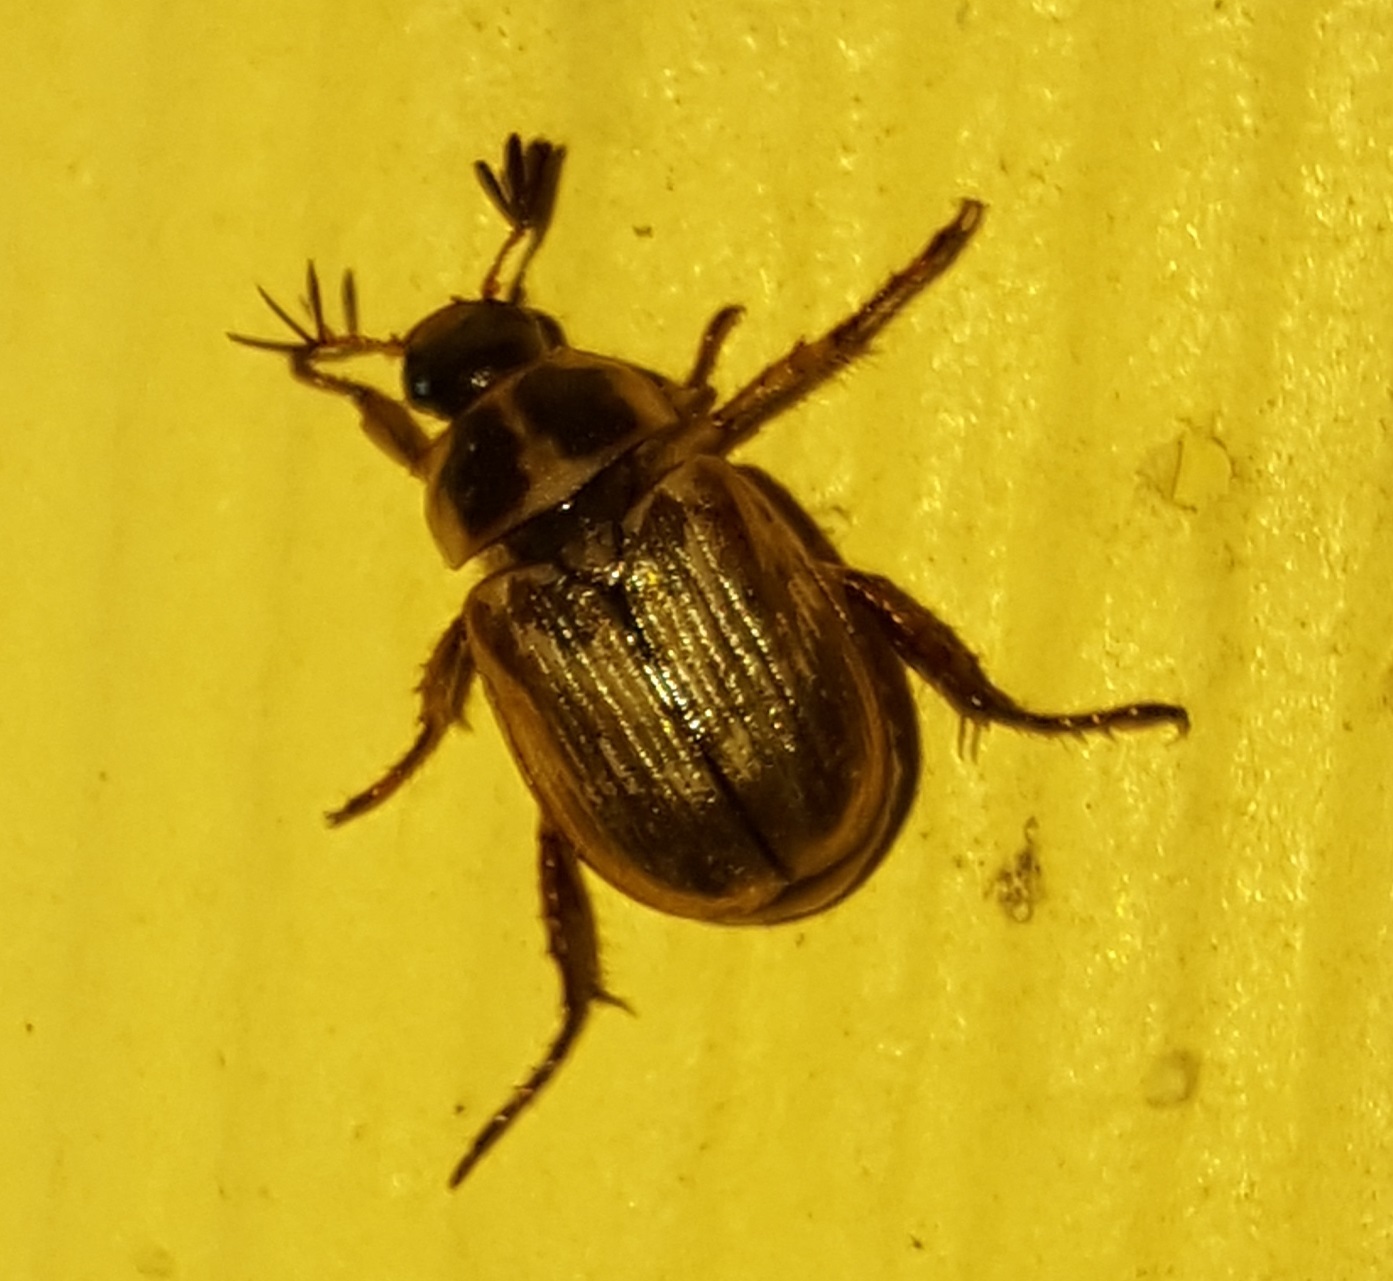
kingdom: Animalia
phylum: Arthropoda
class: Insecta
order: Coleoptera
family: Scarabaeidae
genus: Exomala
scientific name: Exomala orientalis
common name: Oriental beetle
